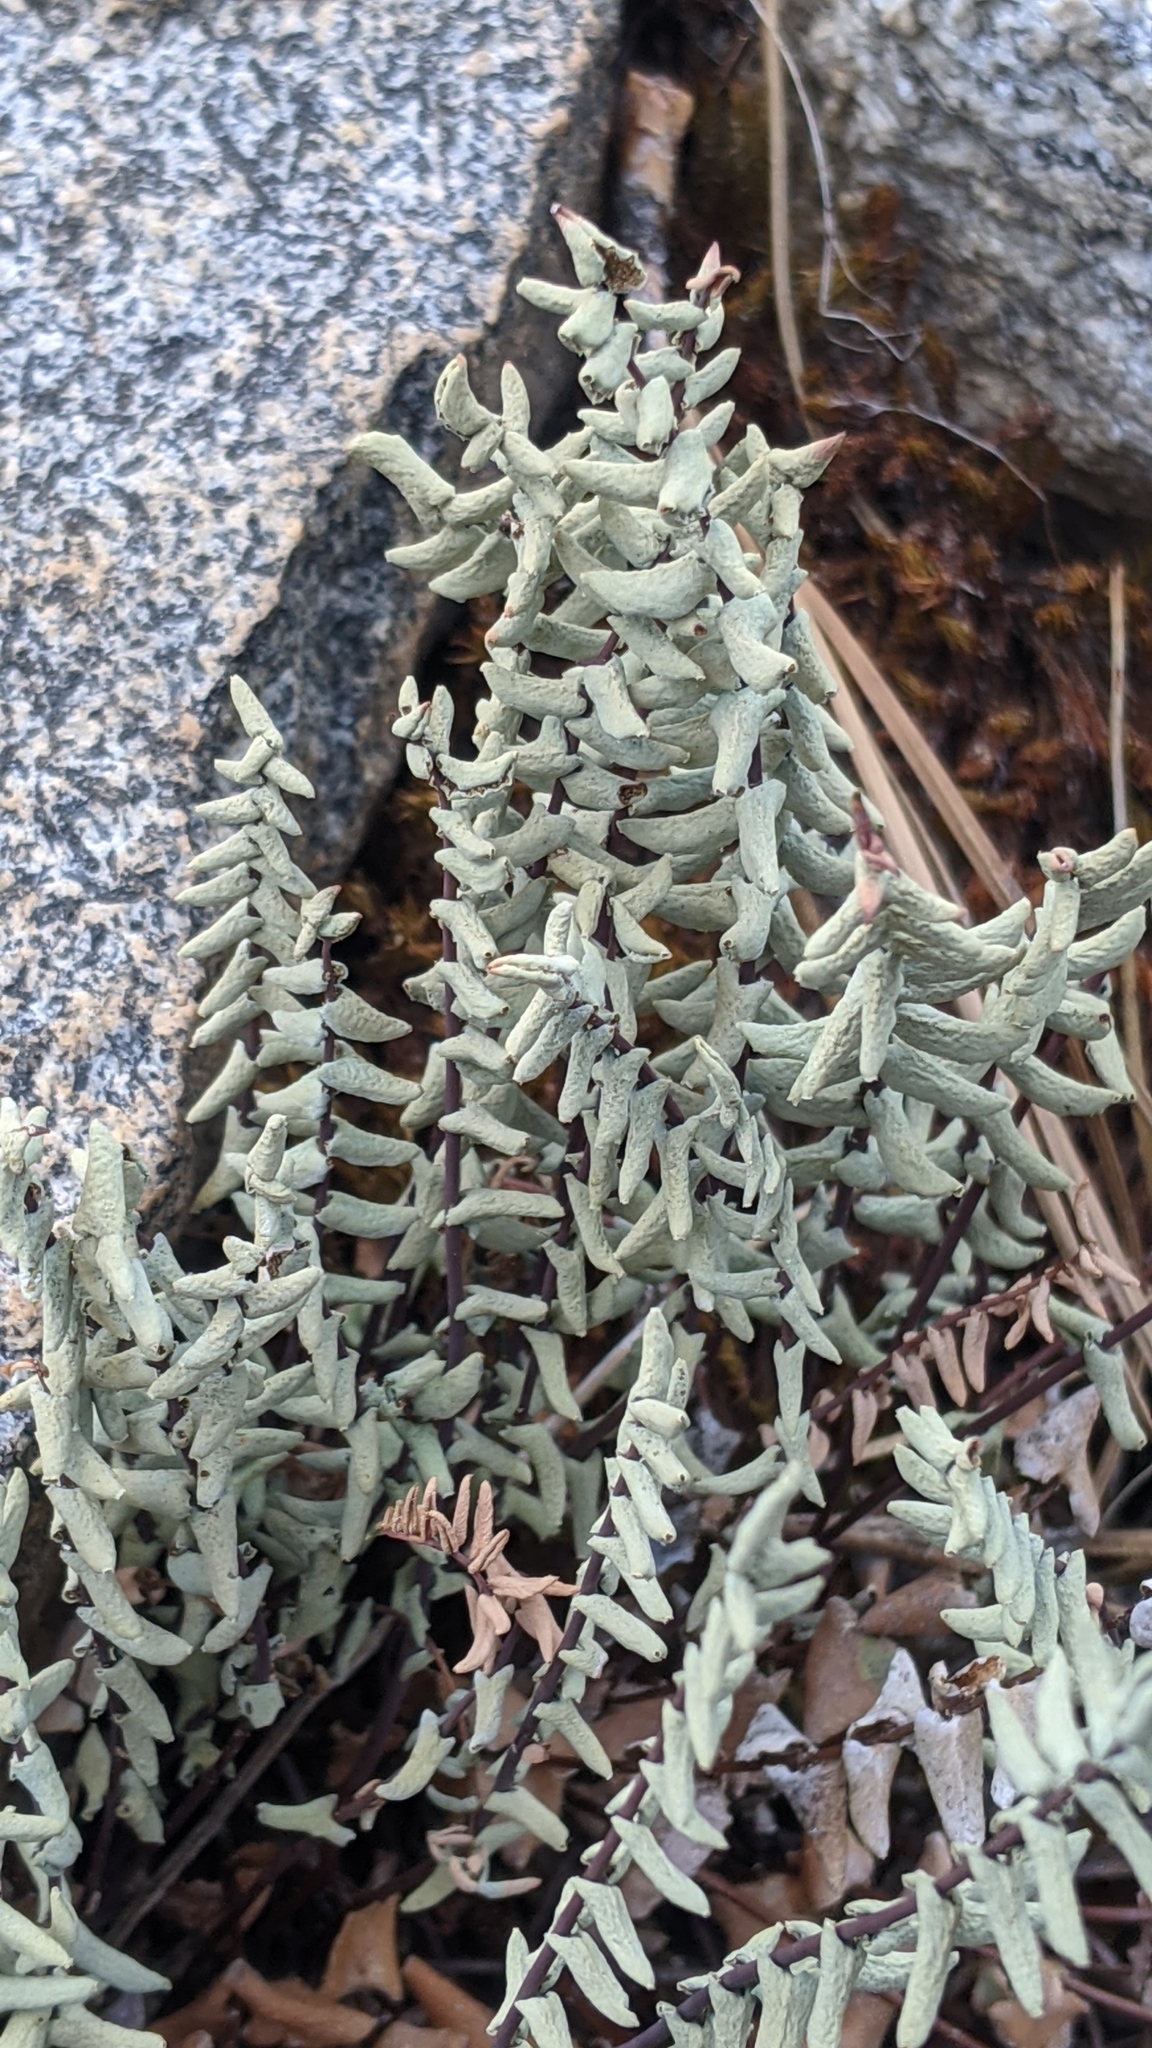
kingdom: Plantae
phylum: Tracheophyta
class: Polypodiopsida
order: Polypodiales
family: Pteridaceae
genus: Pellaea
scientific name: Pellaea bridgesii
